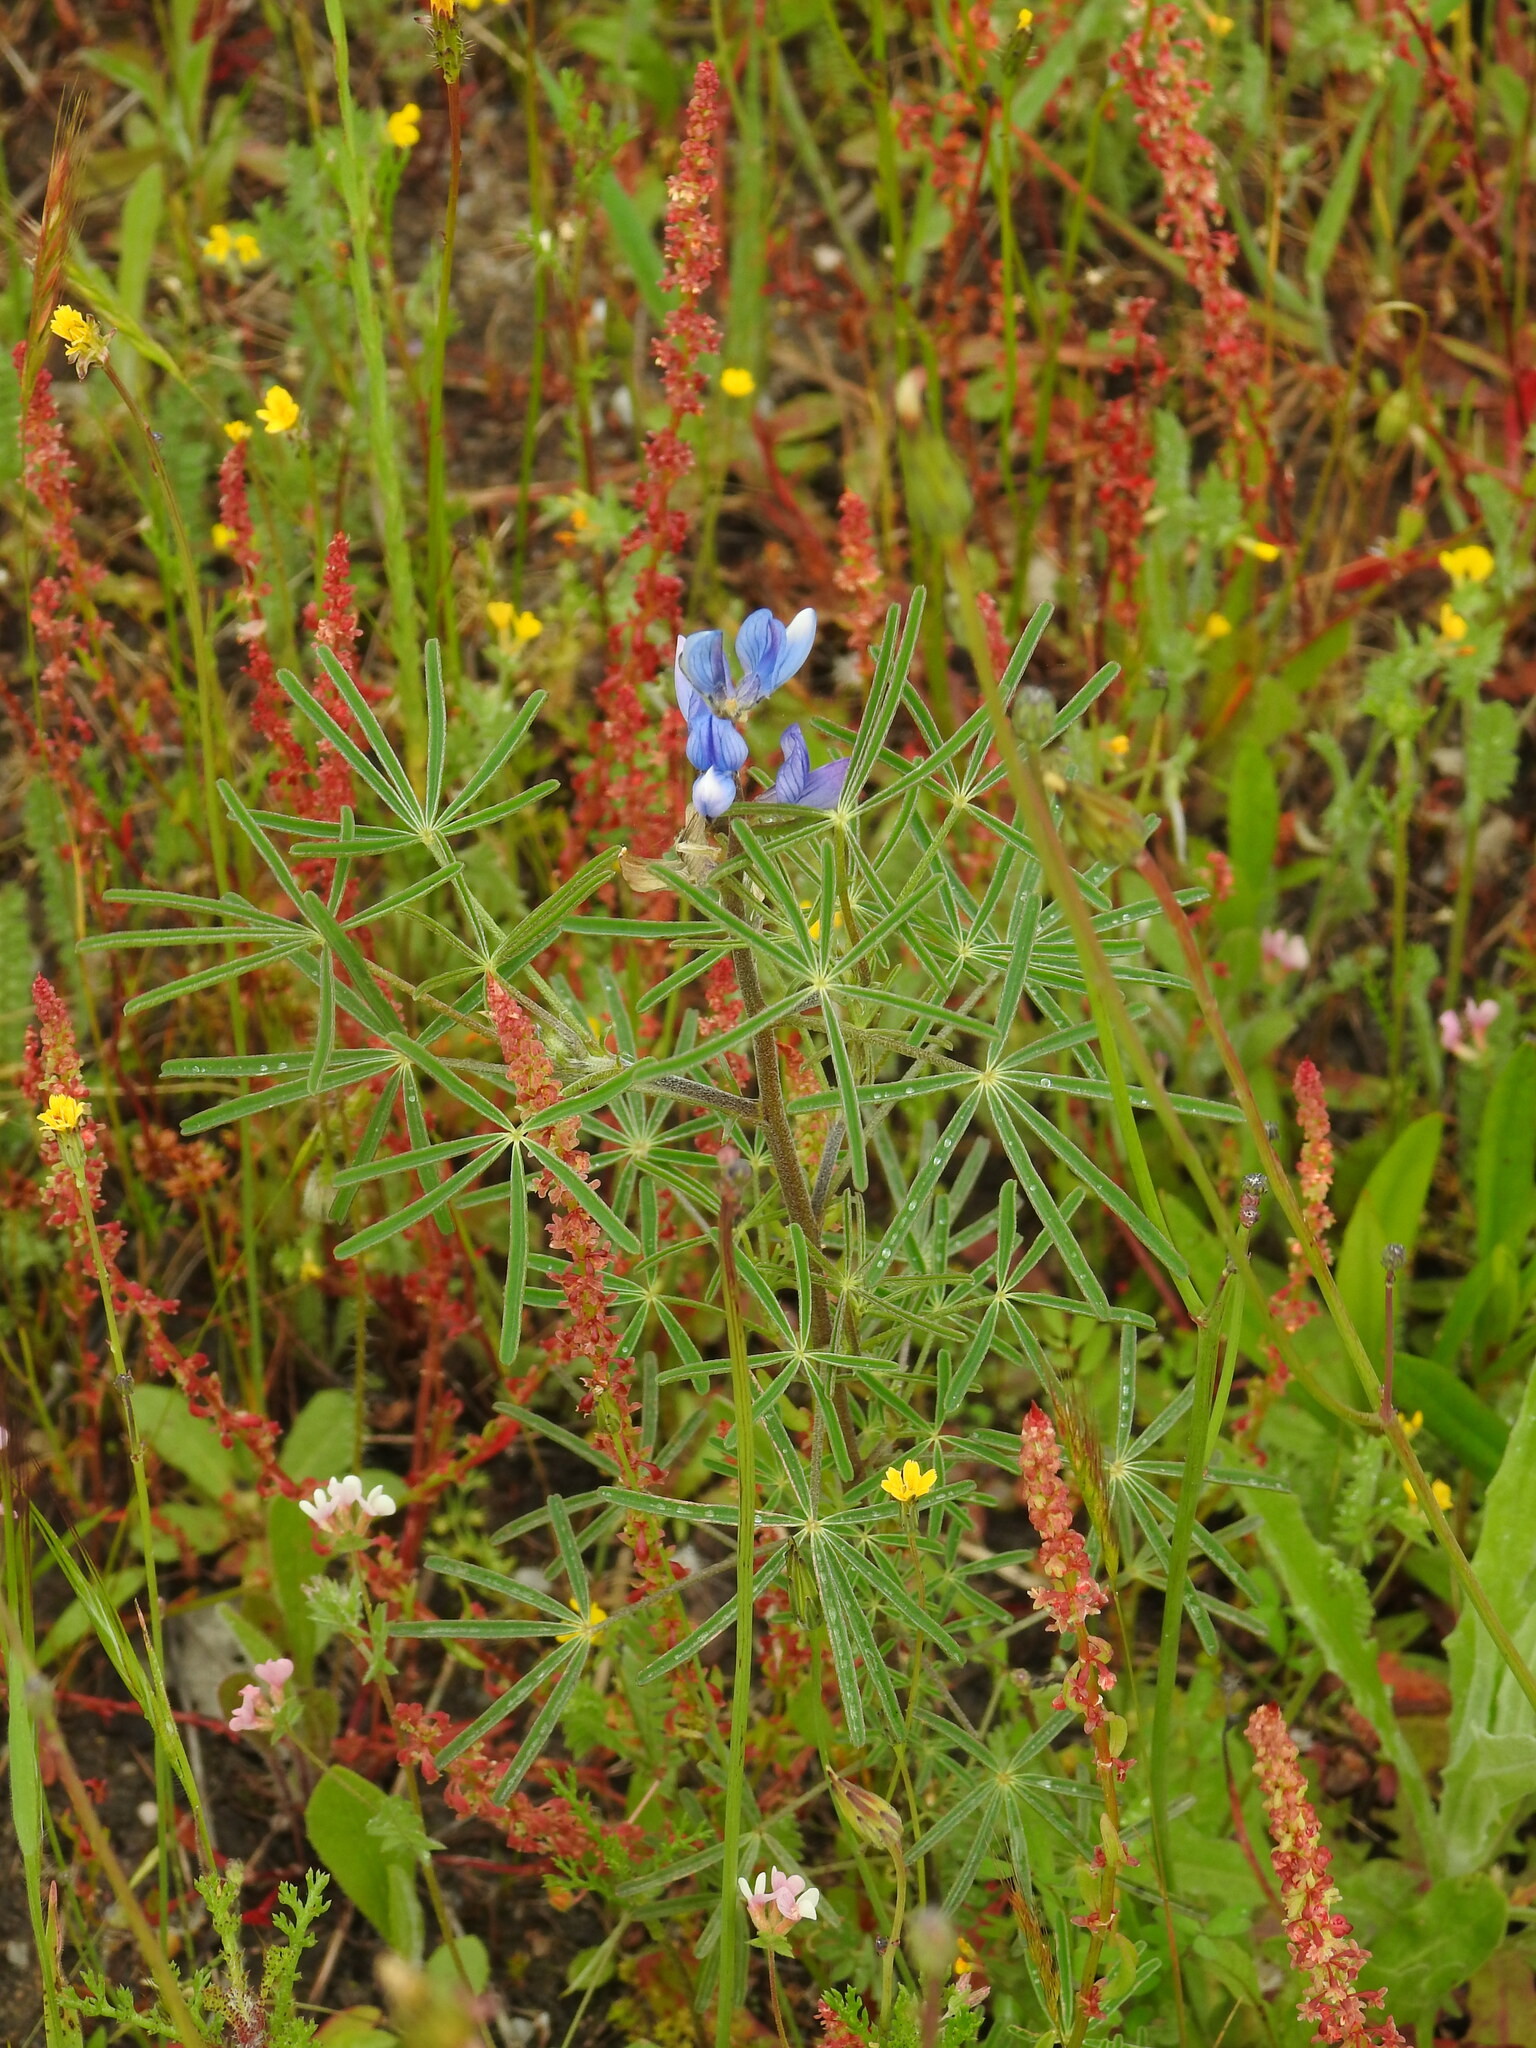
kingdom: Plantae
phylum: Tracheophyta
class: Magnoliopsida
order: Fabales
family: Fabaceae
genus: Lupinus
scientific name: Lupinus angustifolius
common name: Narrow-leaved lupin
